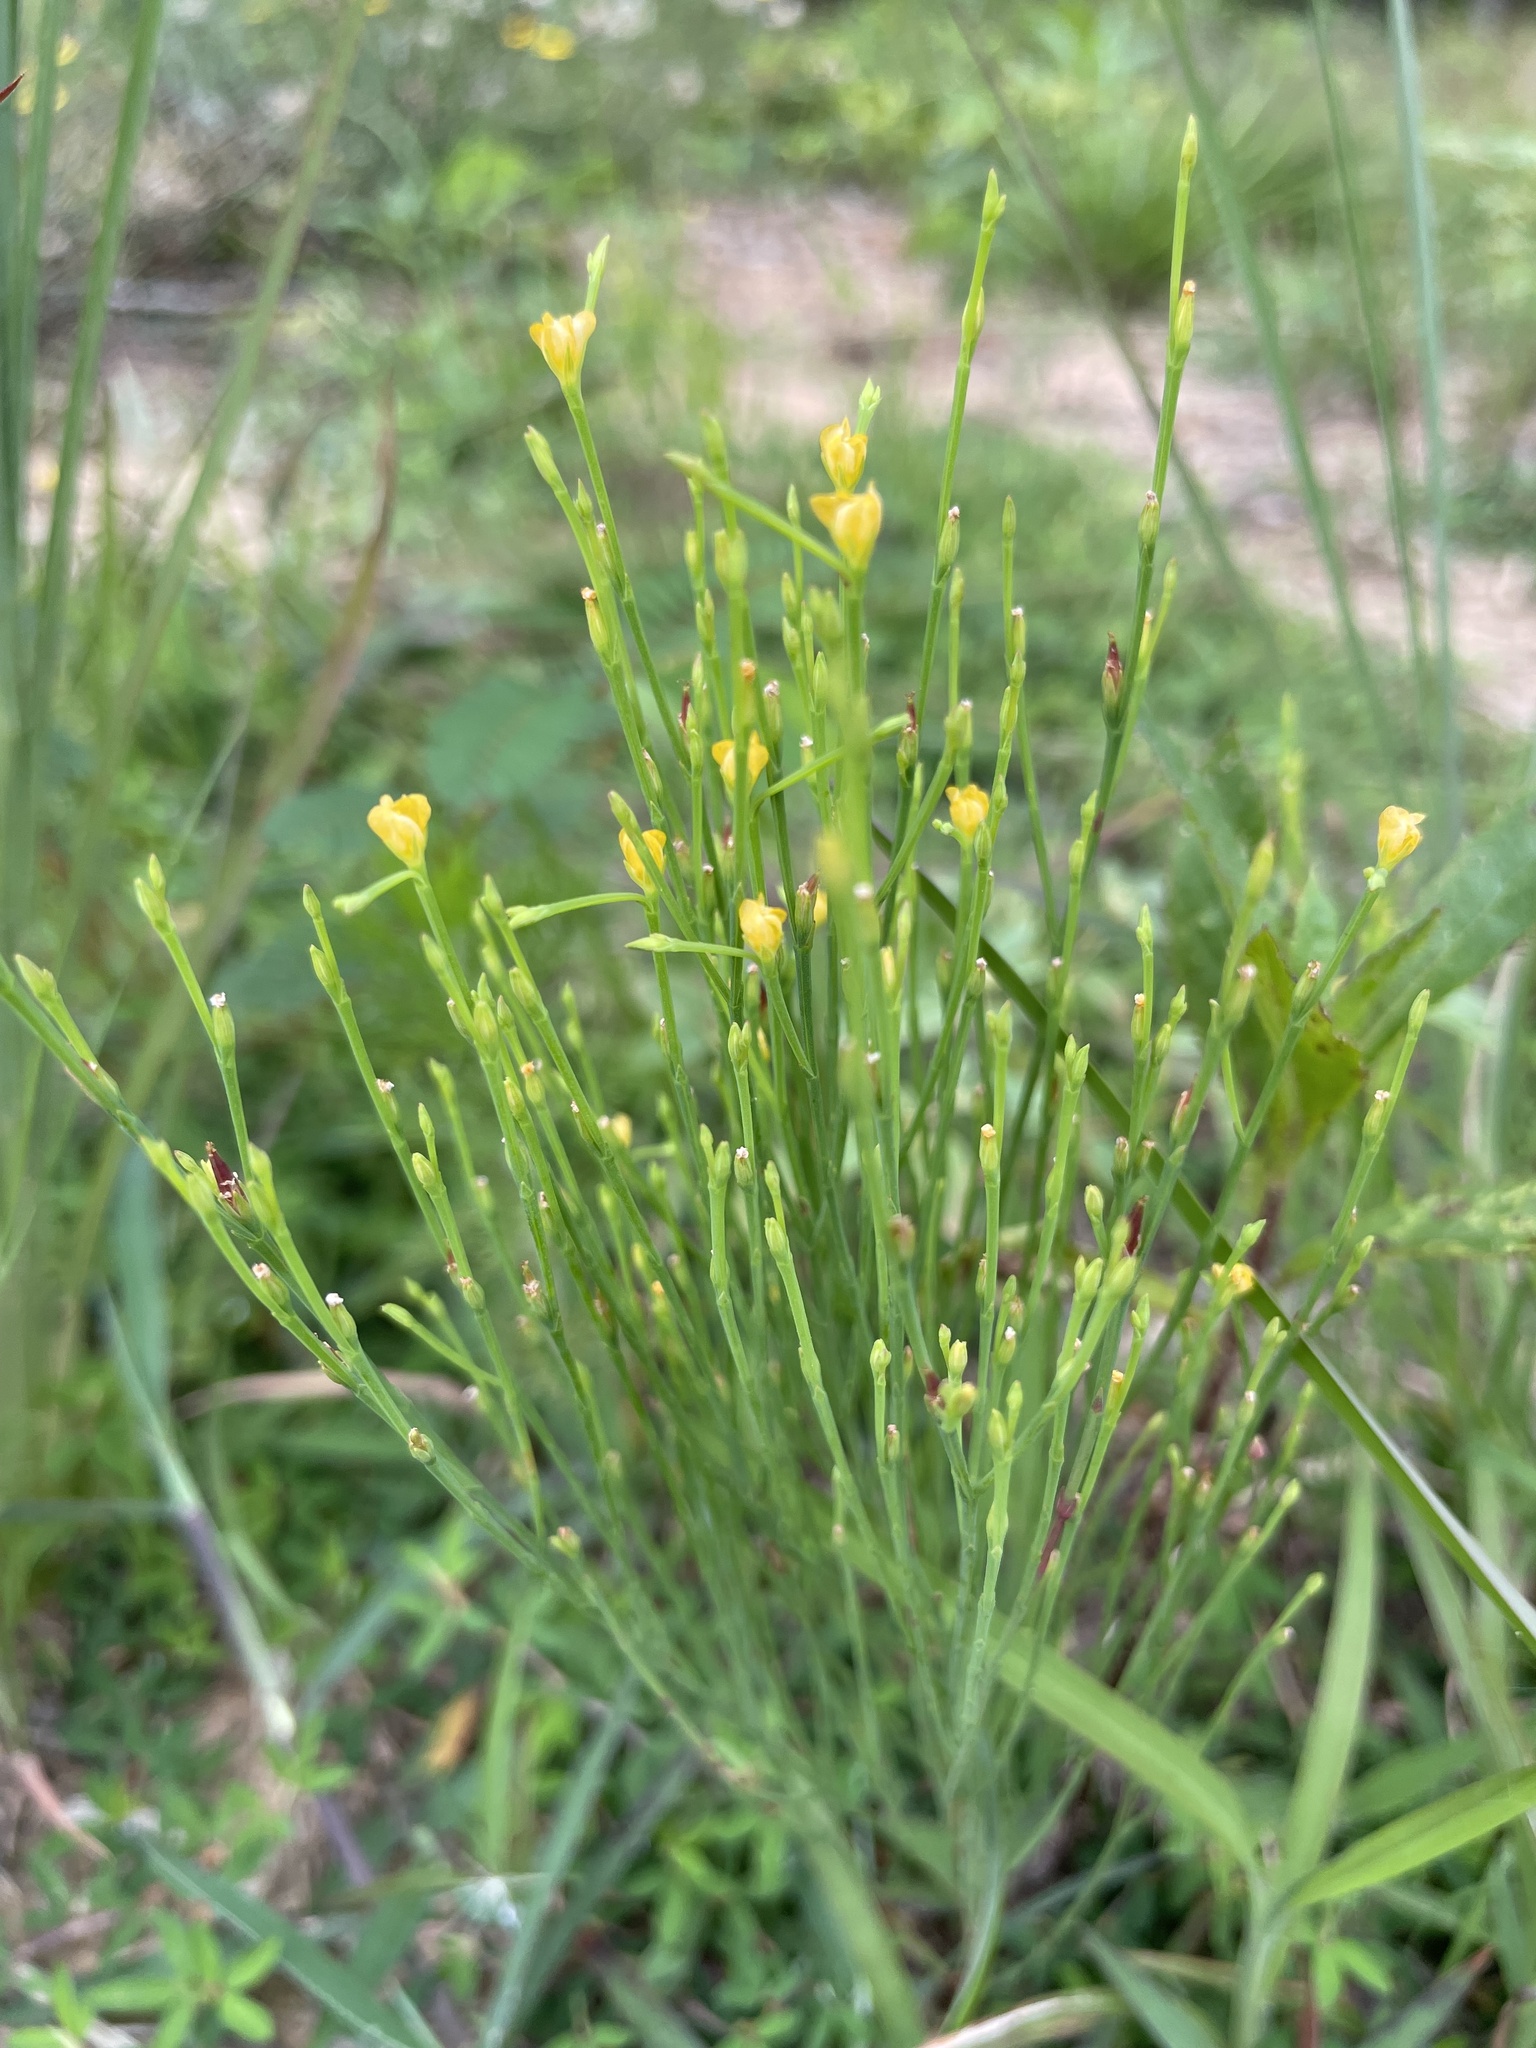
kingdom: Plantae
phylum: Tracheophyta
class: Magnoliopsida
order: Malpighiales
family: Hypericaceae
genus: Hypericum
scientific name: Hypericum gentianoides
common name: Gentian-leaved st. john's-wort
